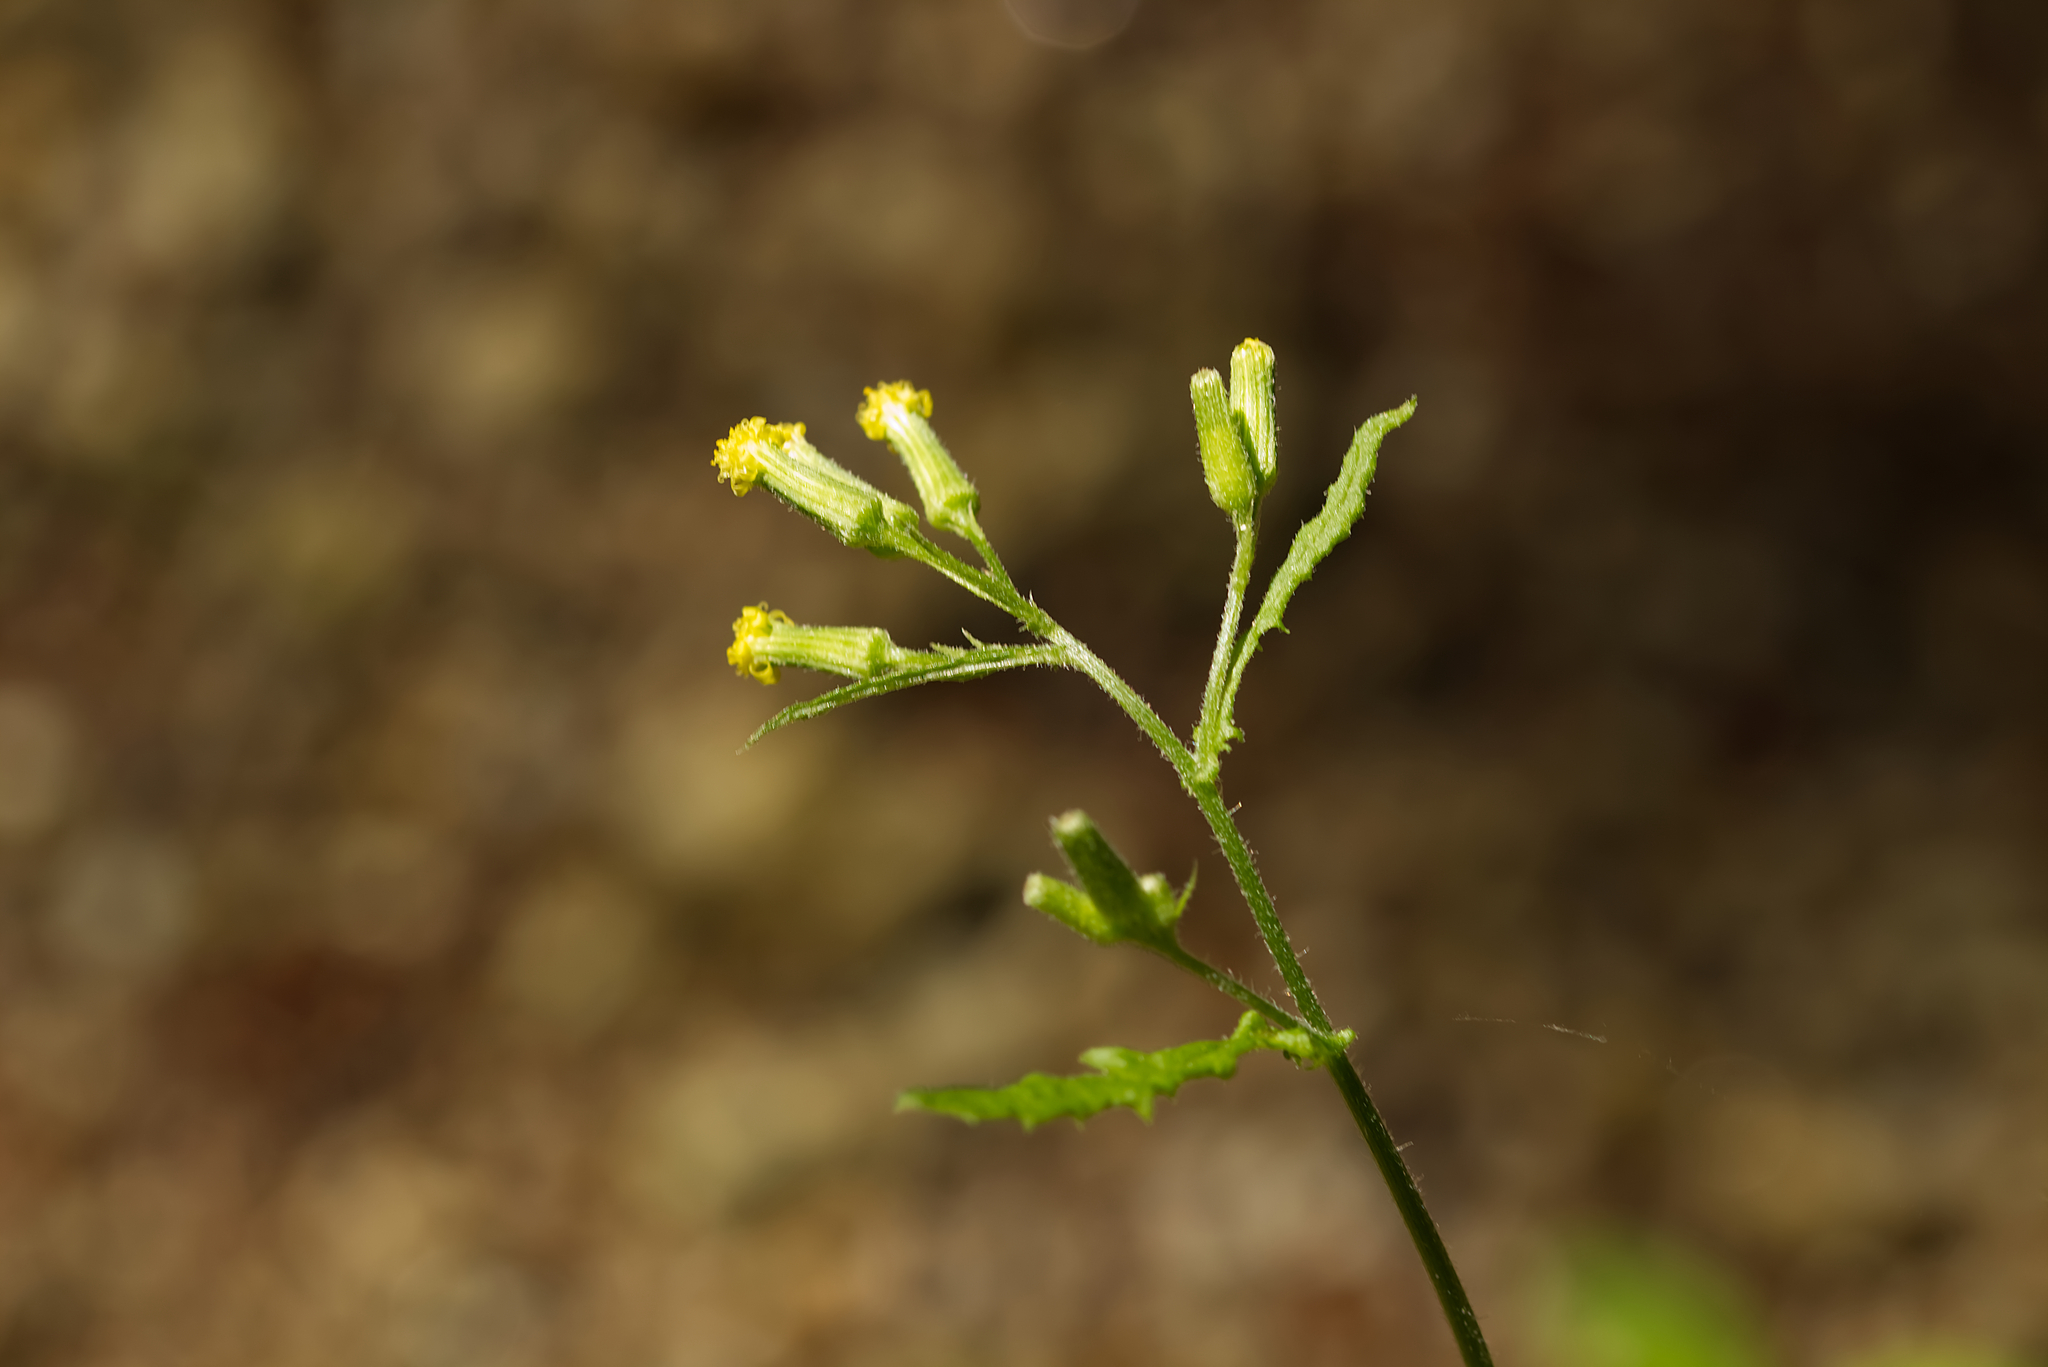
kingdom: Plantae
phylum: Tracheophyta
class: Magnoliopsida
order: Asterales
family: Asteraceae
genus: Senecio
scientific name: Senecio sylvaticus
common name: Woodland ragwort
